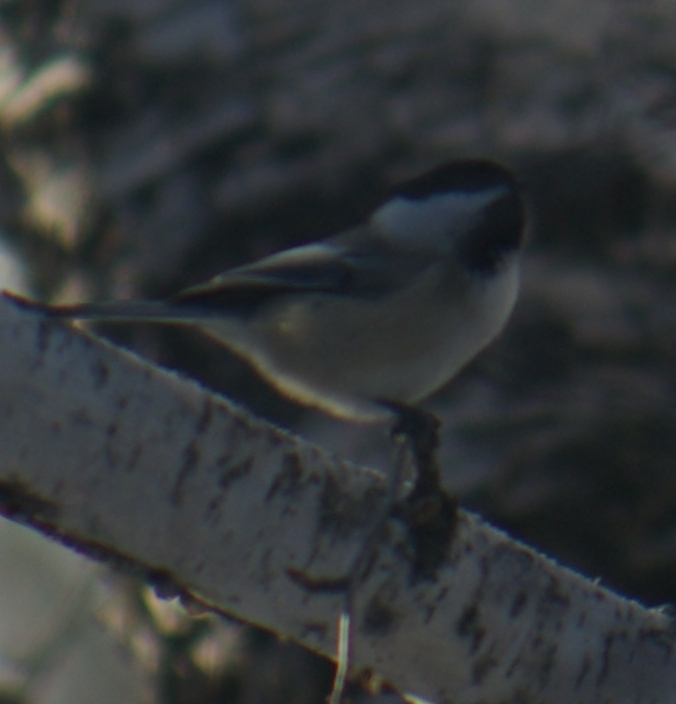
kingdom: Animalia
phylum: Chordata
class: Aves
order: Passeriformes
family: Paridae
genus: Poecile
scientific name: Poecile atricapillus
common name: Black-capped chickadee
